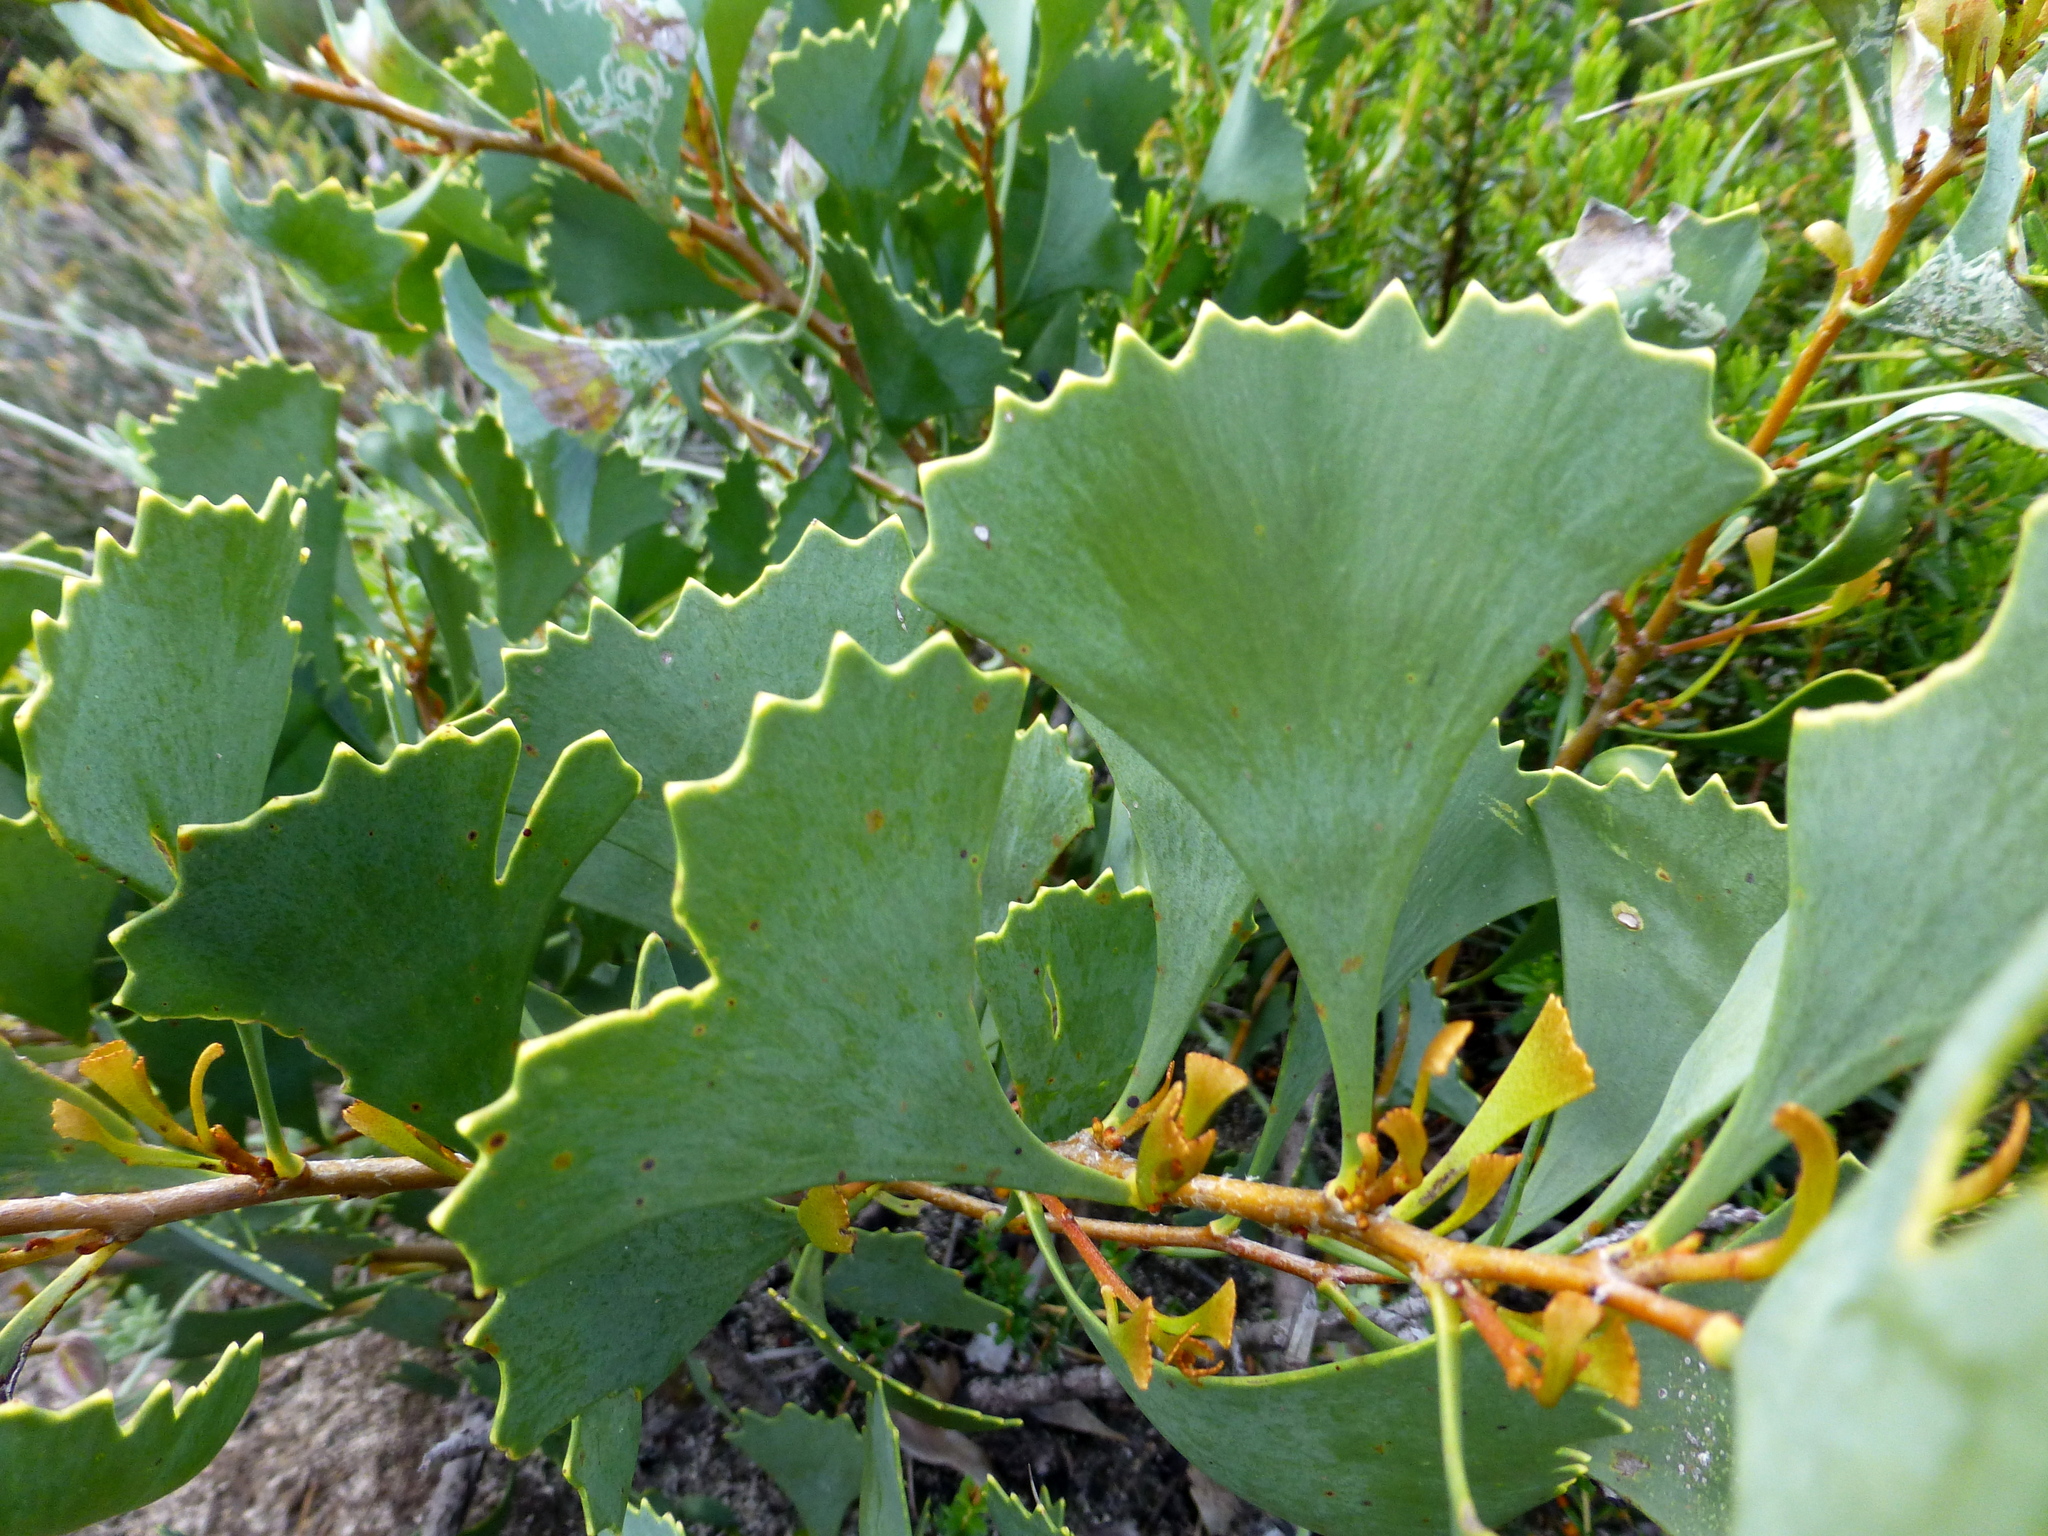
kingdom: Plantae
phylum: Tracheophyta
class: Magnoliopsida
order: Proteales
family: Proteaceae
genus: Hakea
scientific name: Hakea flabellifolia
